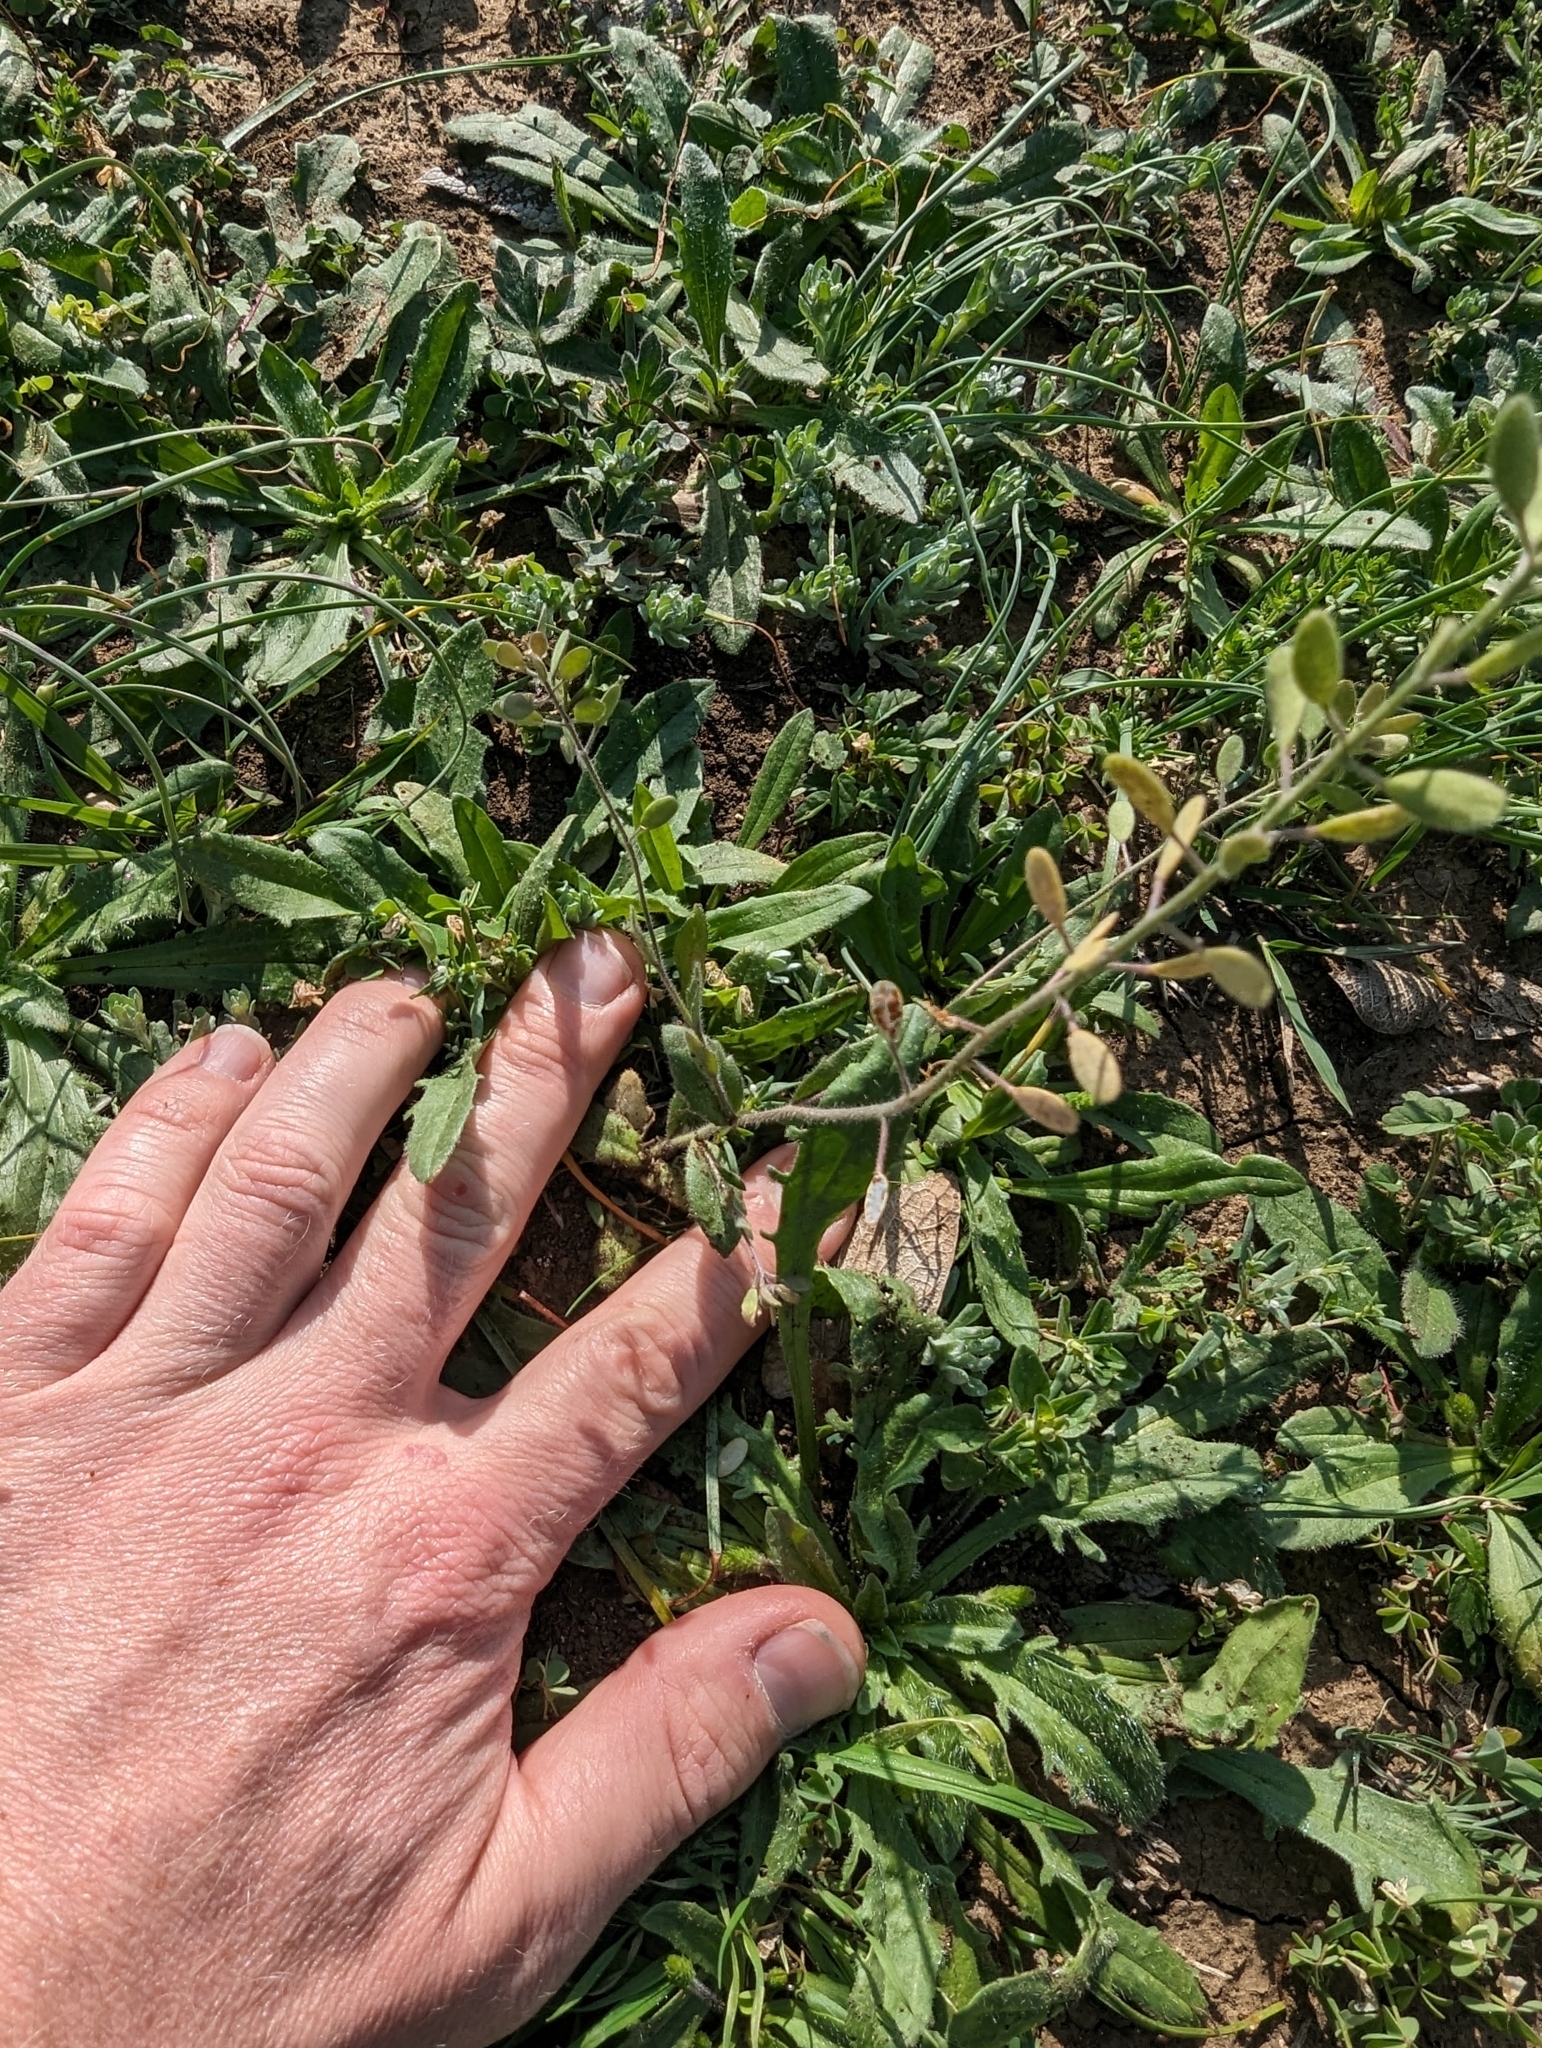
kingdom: Plantae
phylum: Tracheophyta
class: Magnoliopsida
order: Brassicales
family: Brassicaceae
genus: Tomostima
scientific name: Tomostima platycarpa
